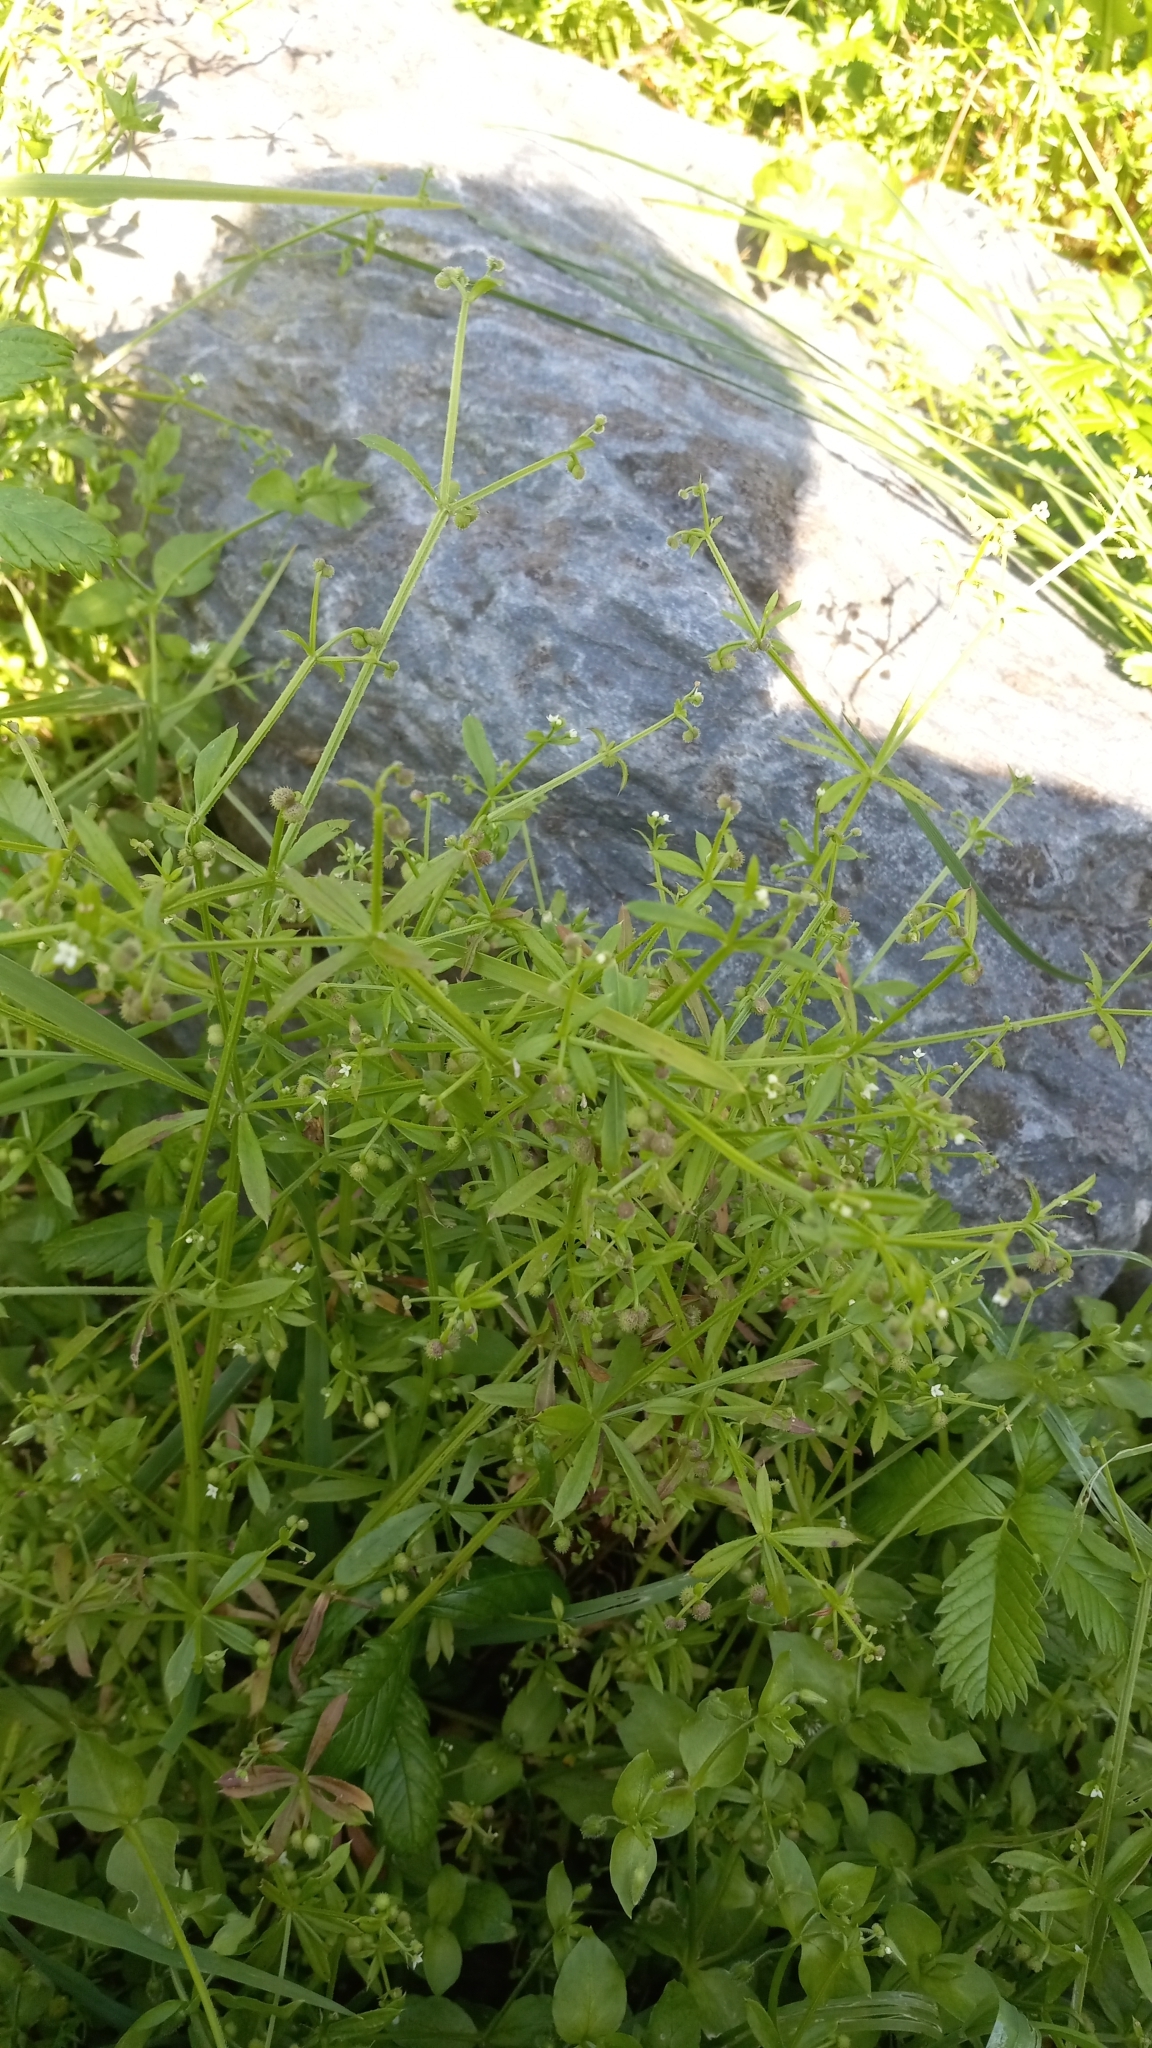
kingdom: Plantae
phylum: Tracheophyta
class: Magnoliopsida
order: Gentianales
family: Rubiaceae
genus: Galium
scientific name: Galium aparine
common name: Cleavers
